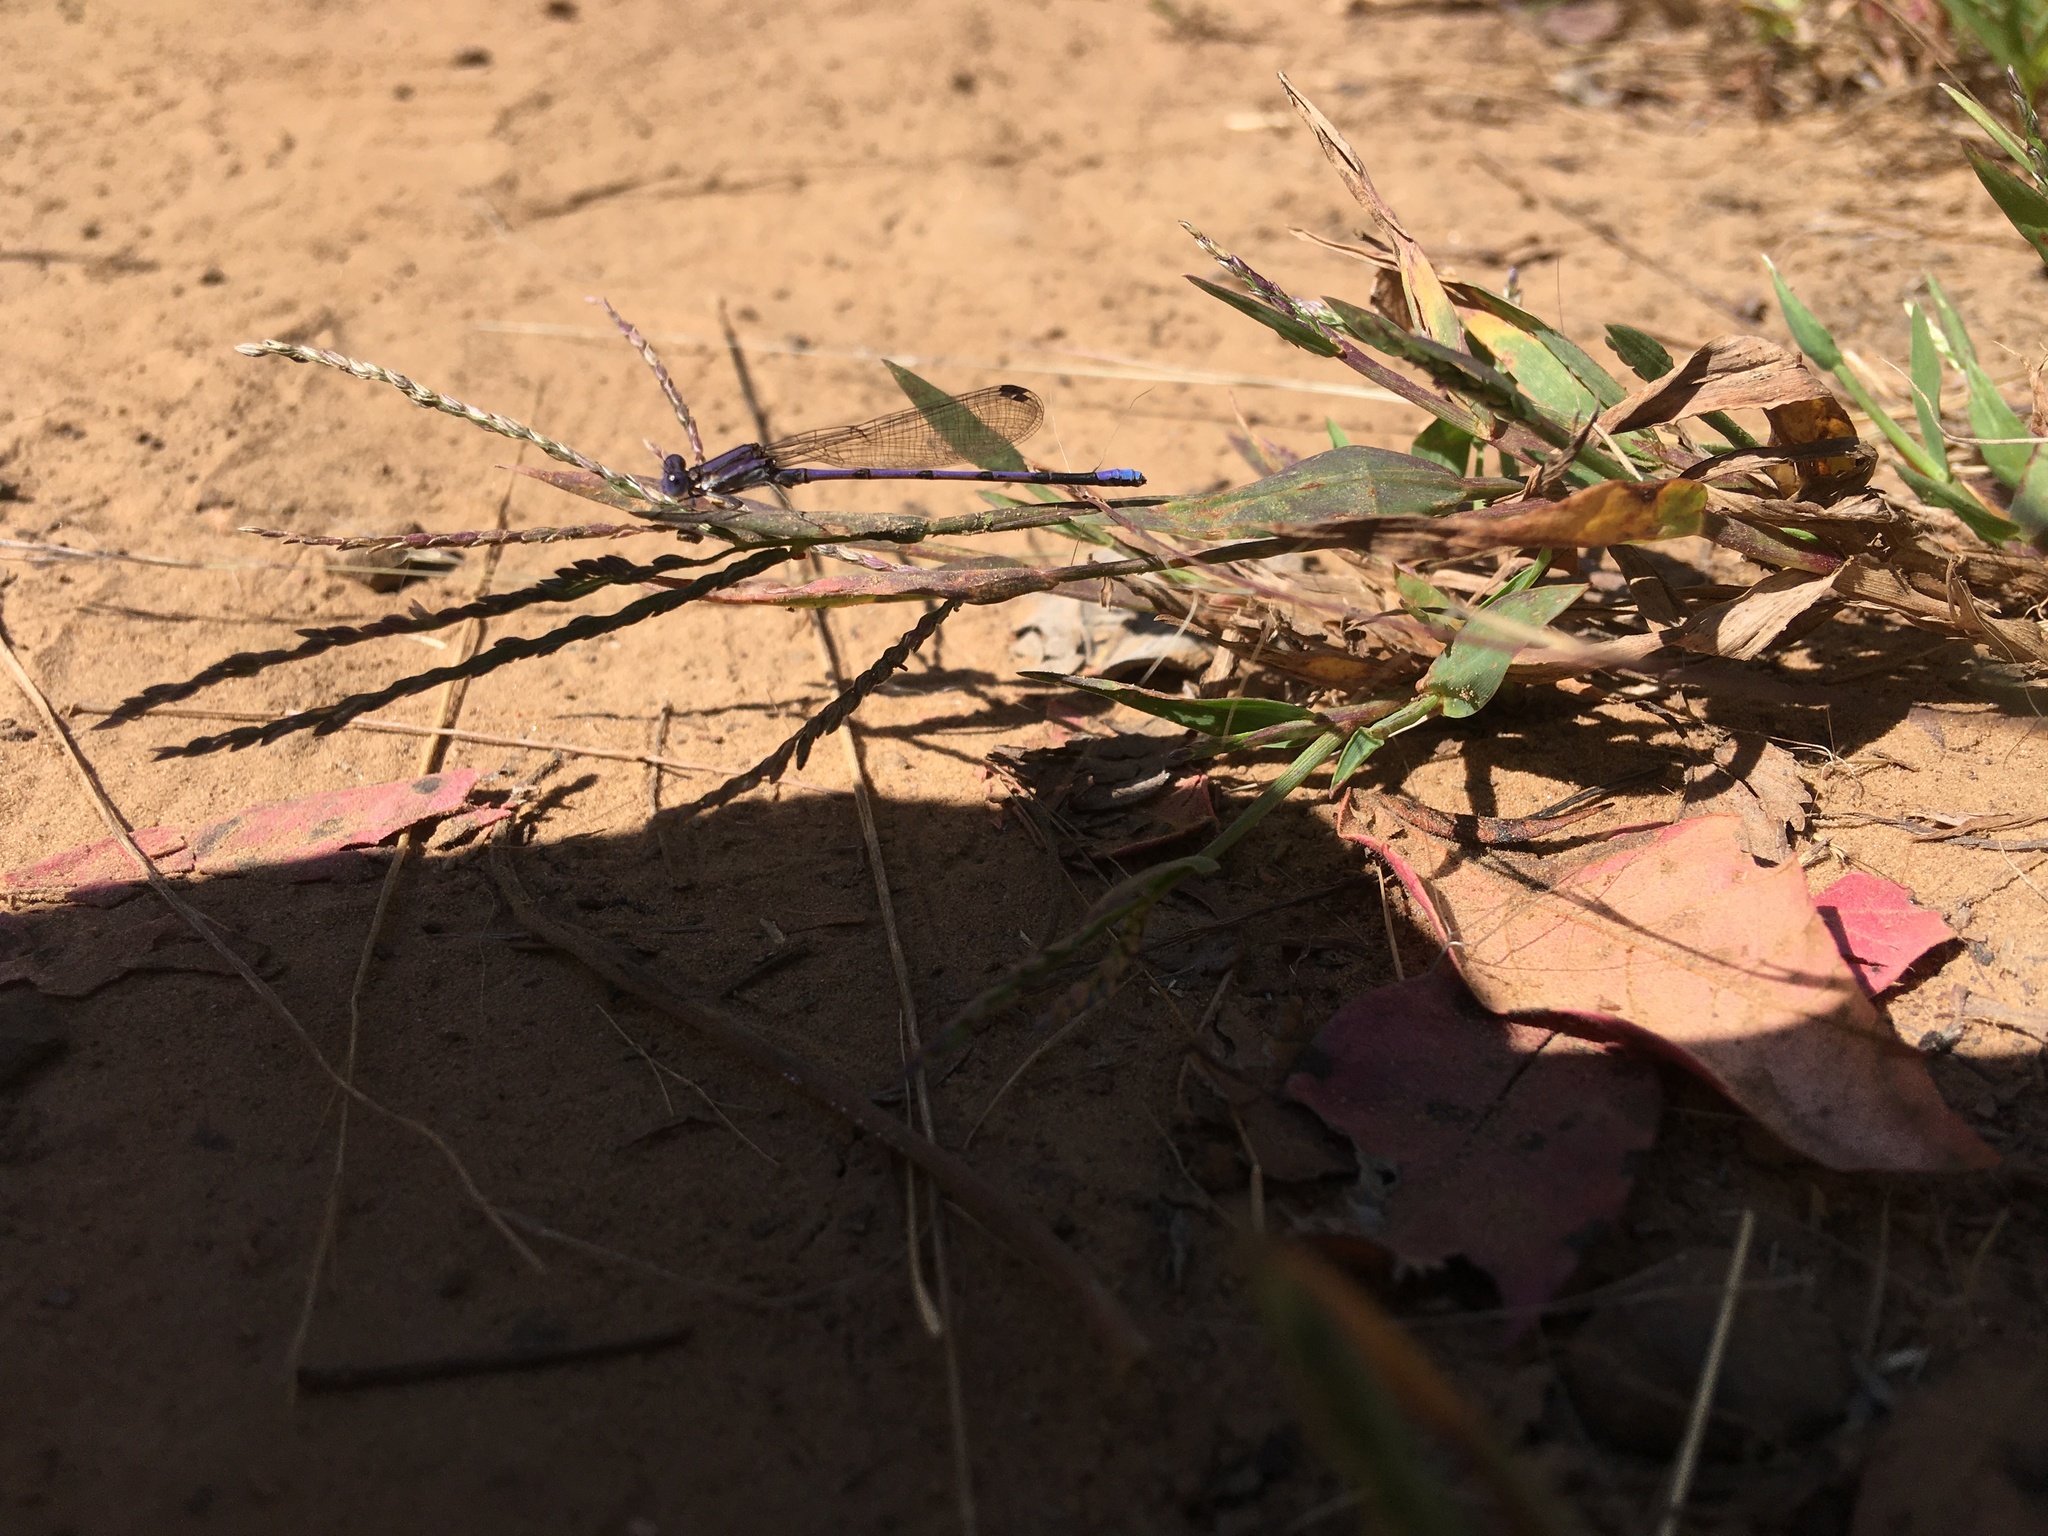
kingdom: Animalia
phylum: Arthropoda
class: Insecta
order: Odonata
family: Coenagrionidae
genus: Argia
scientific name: Argia fumipennis
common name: Variable dancer
